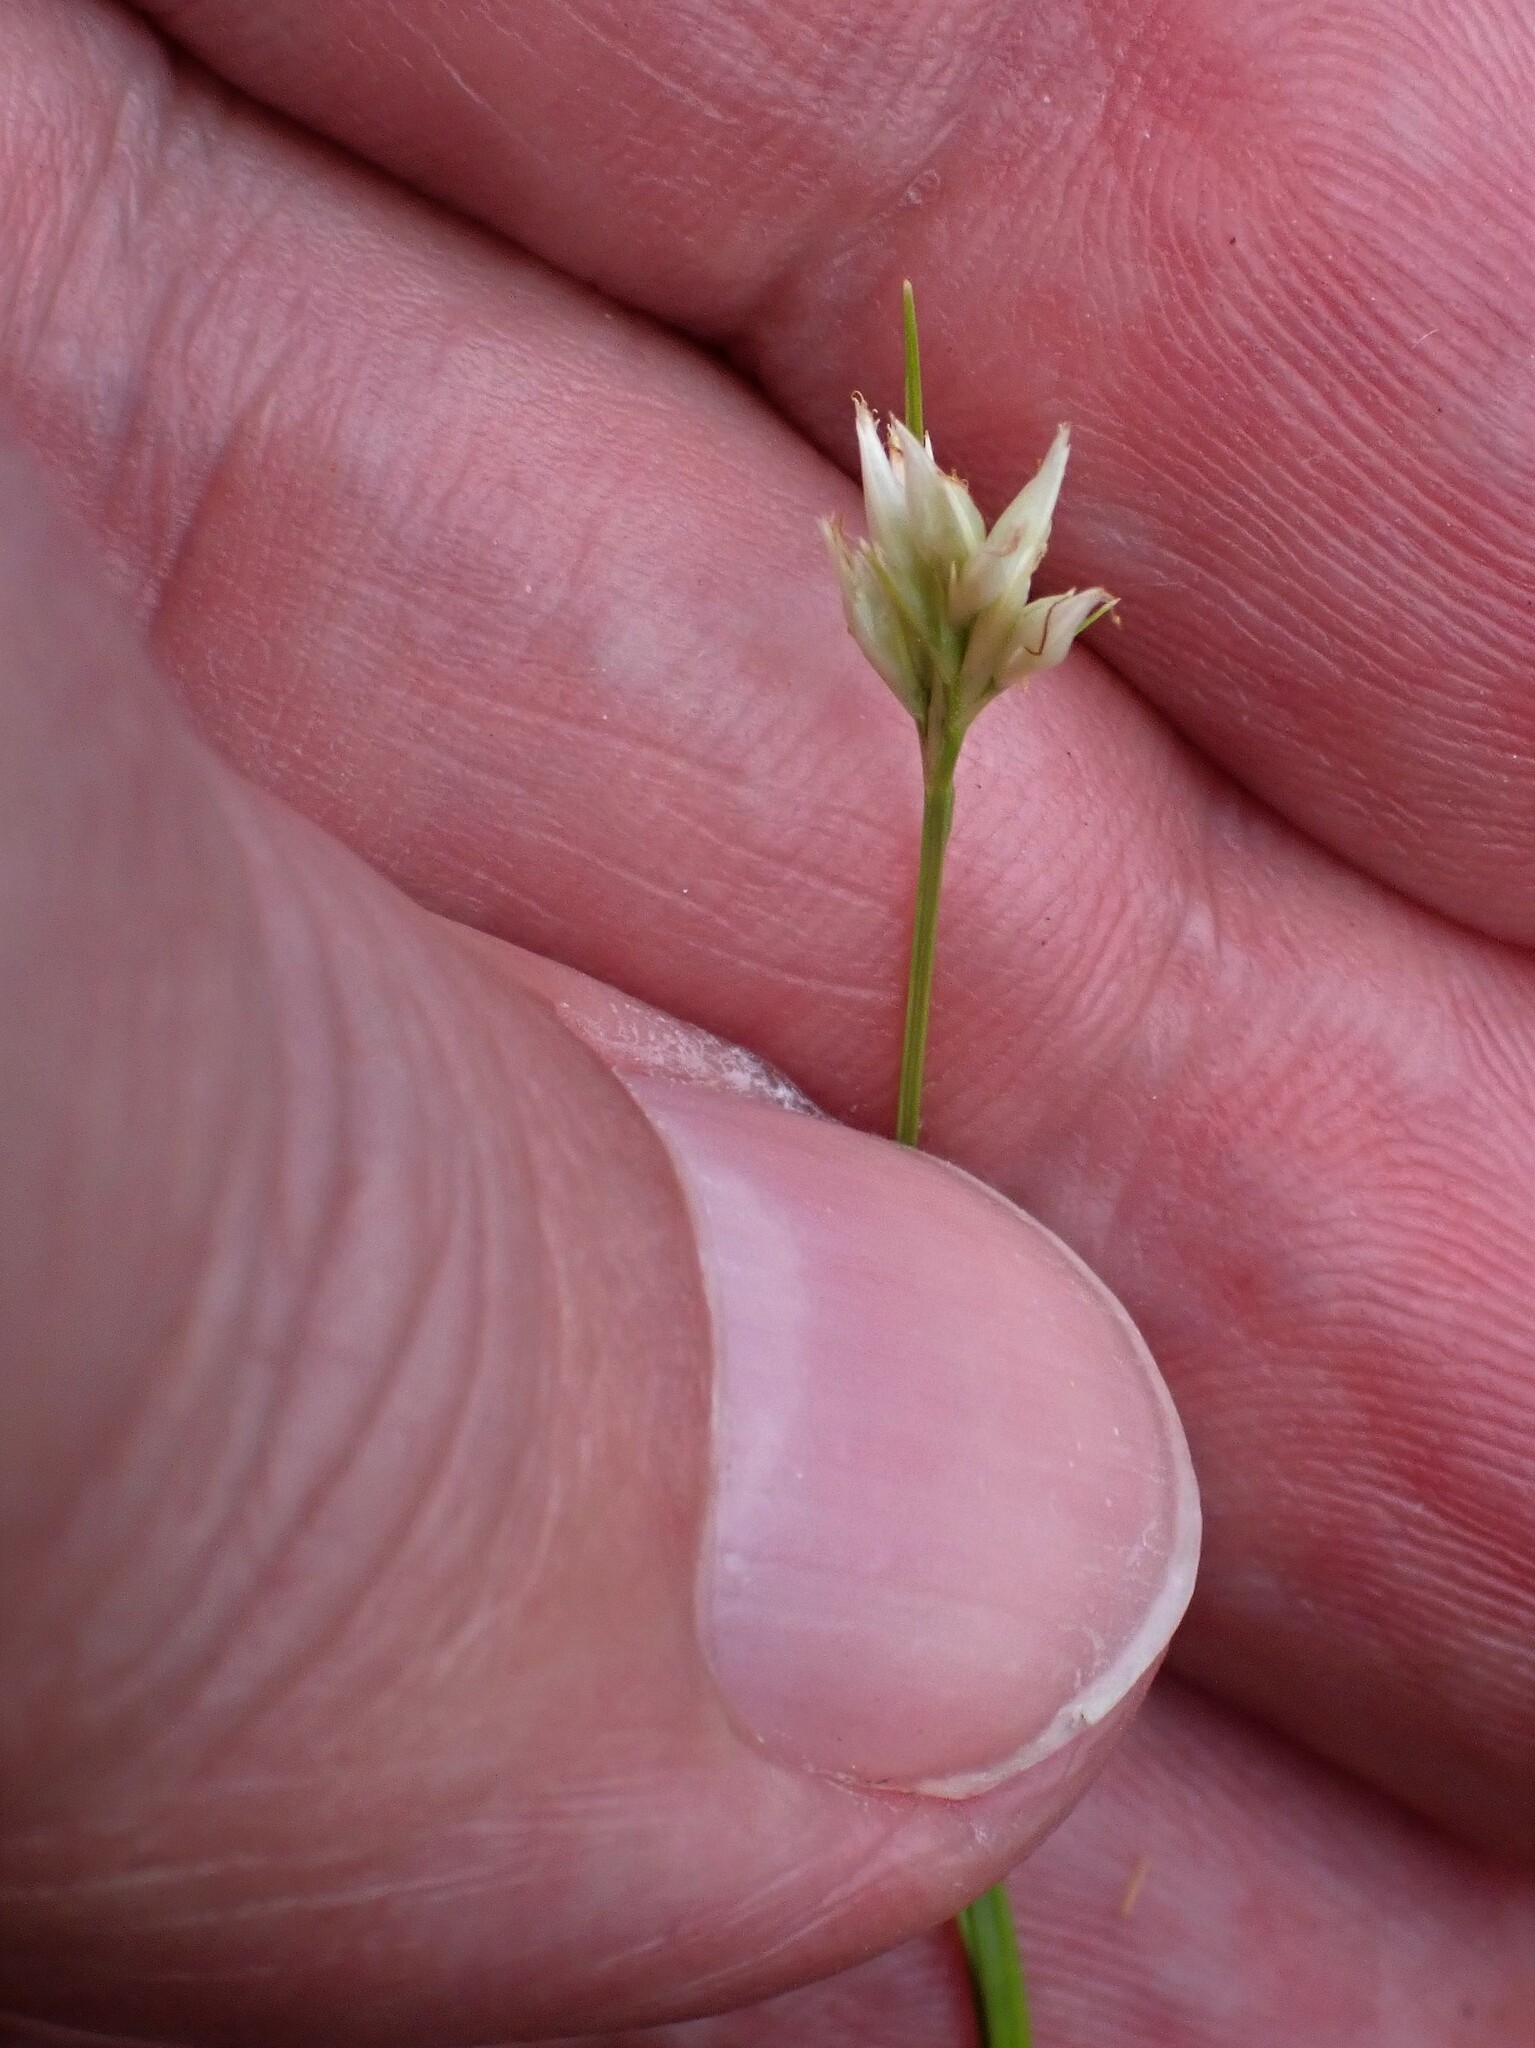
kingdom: Plantae
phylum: Tracheophyta
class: Liliopsida
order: Poales
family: Cyperaceae
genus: Rhynchospora
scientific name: Rhynchospora alba
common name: White beak-sedge
